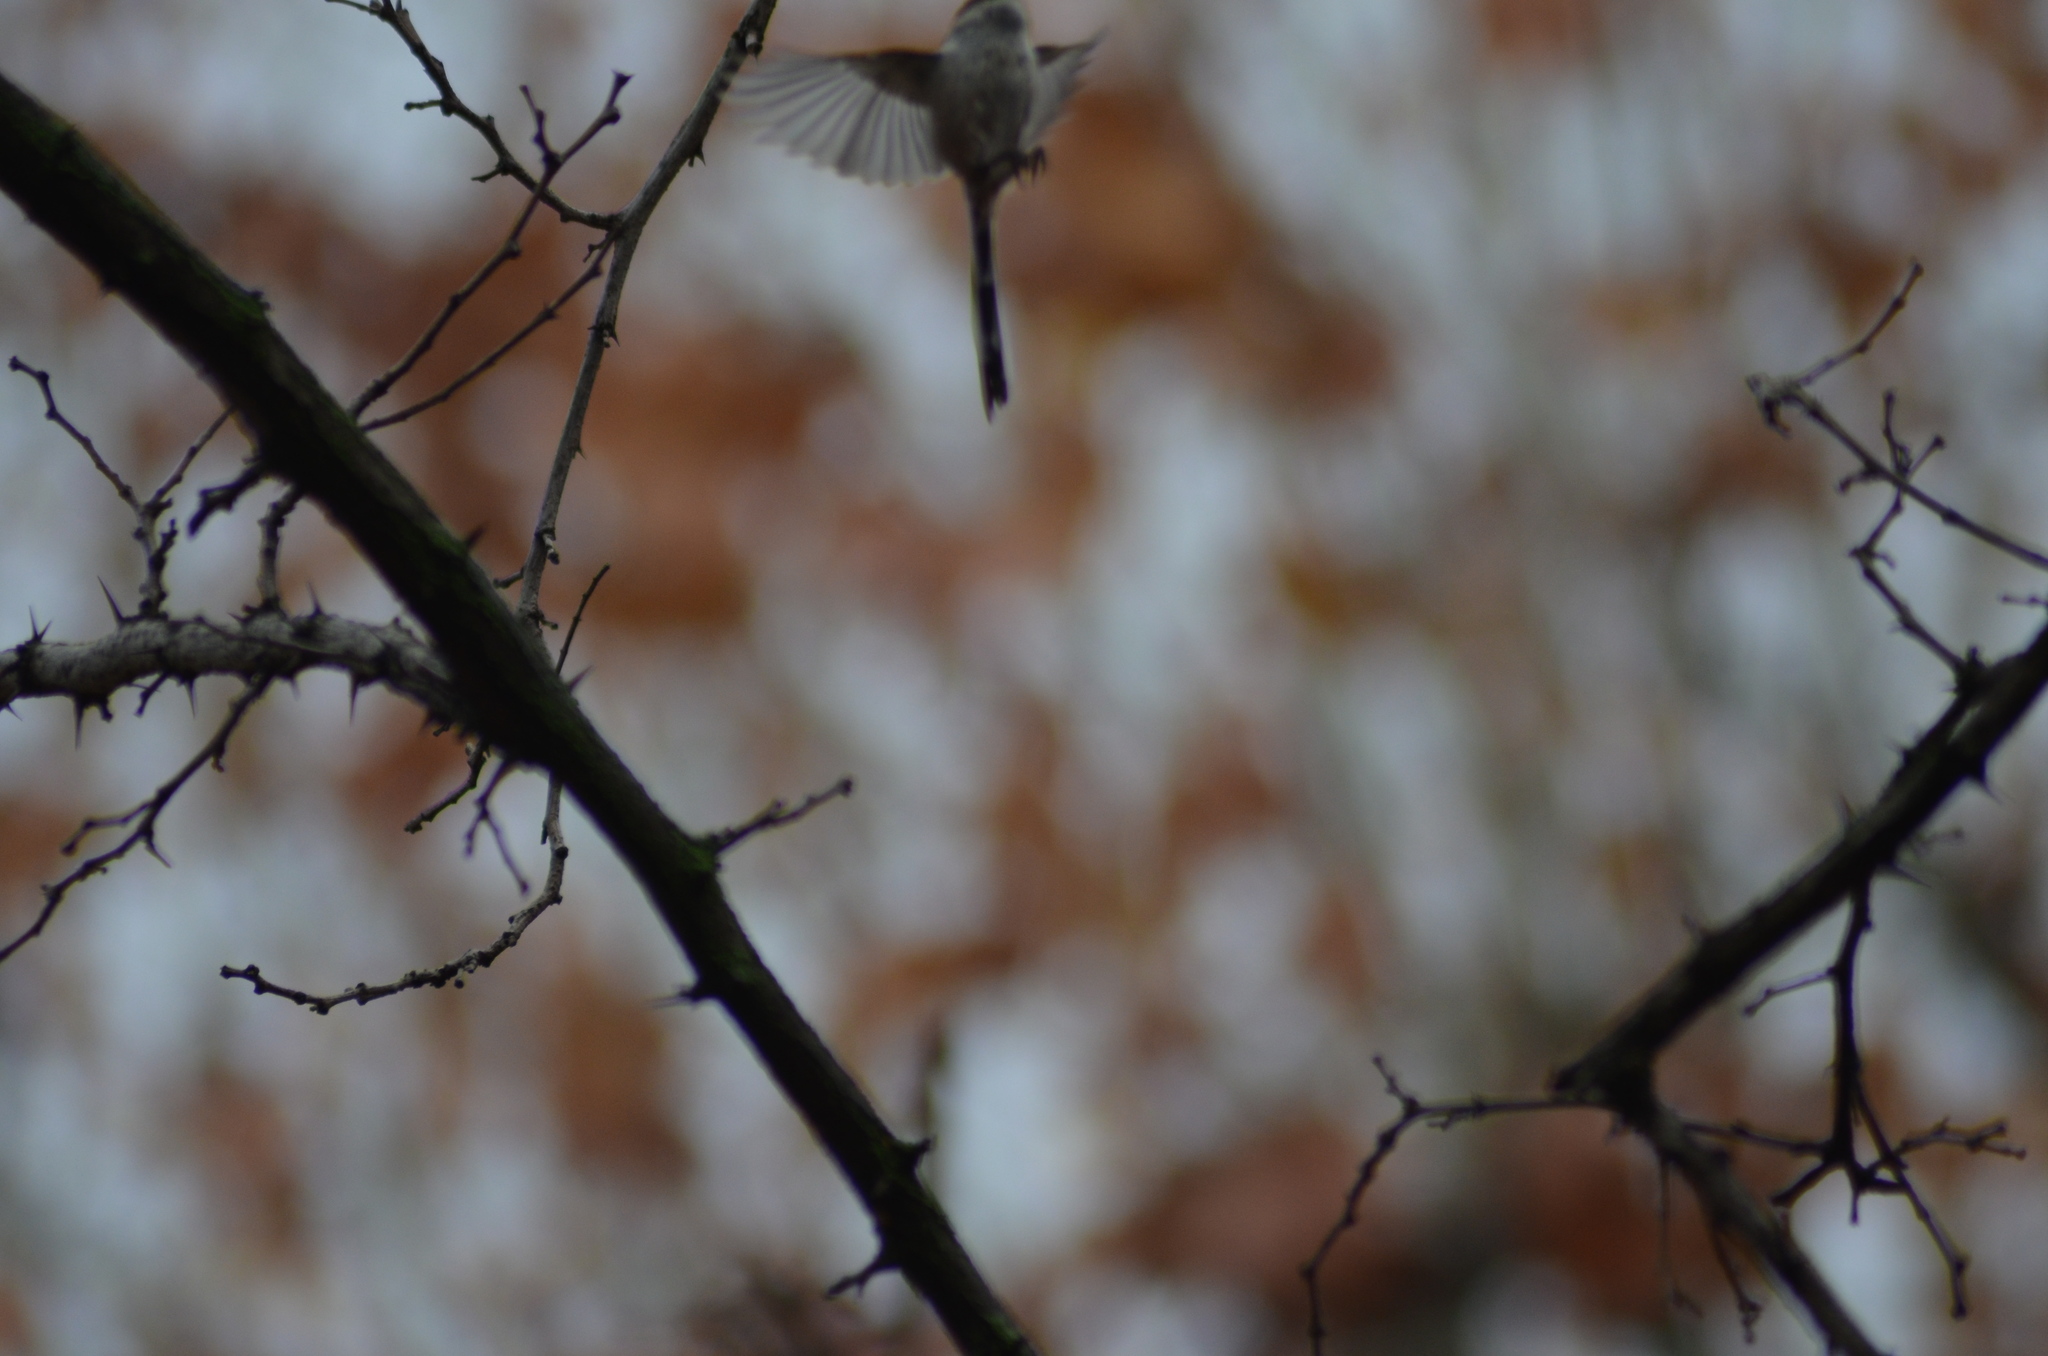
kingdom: Animalia
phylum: Chordata
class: Aves
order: Passeriformes
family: Aegithalidae
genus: Aegithalos
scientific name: Aegithalos caudatus
